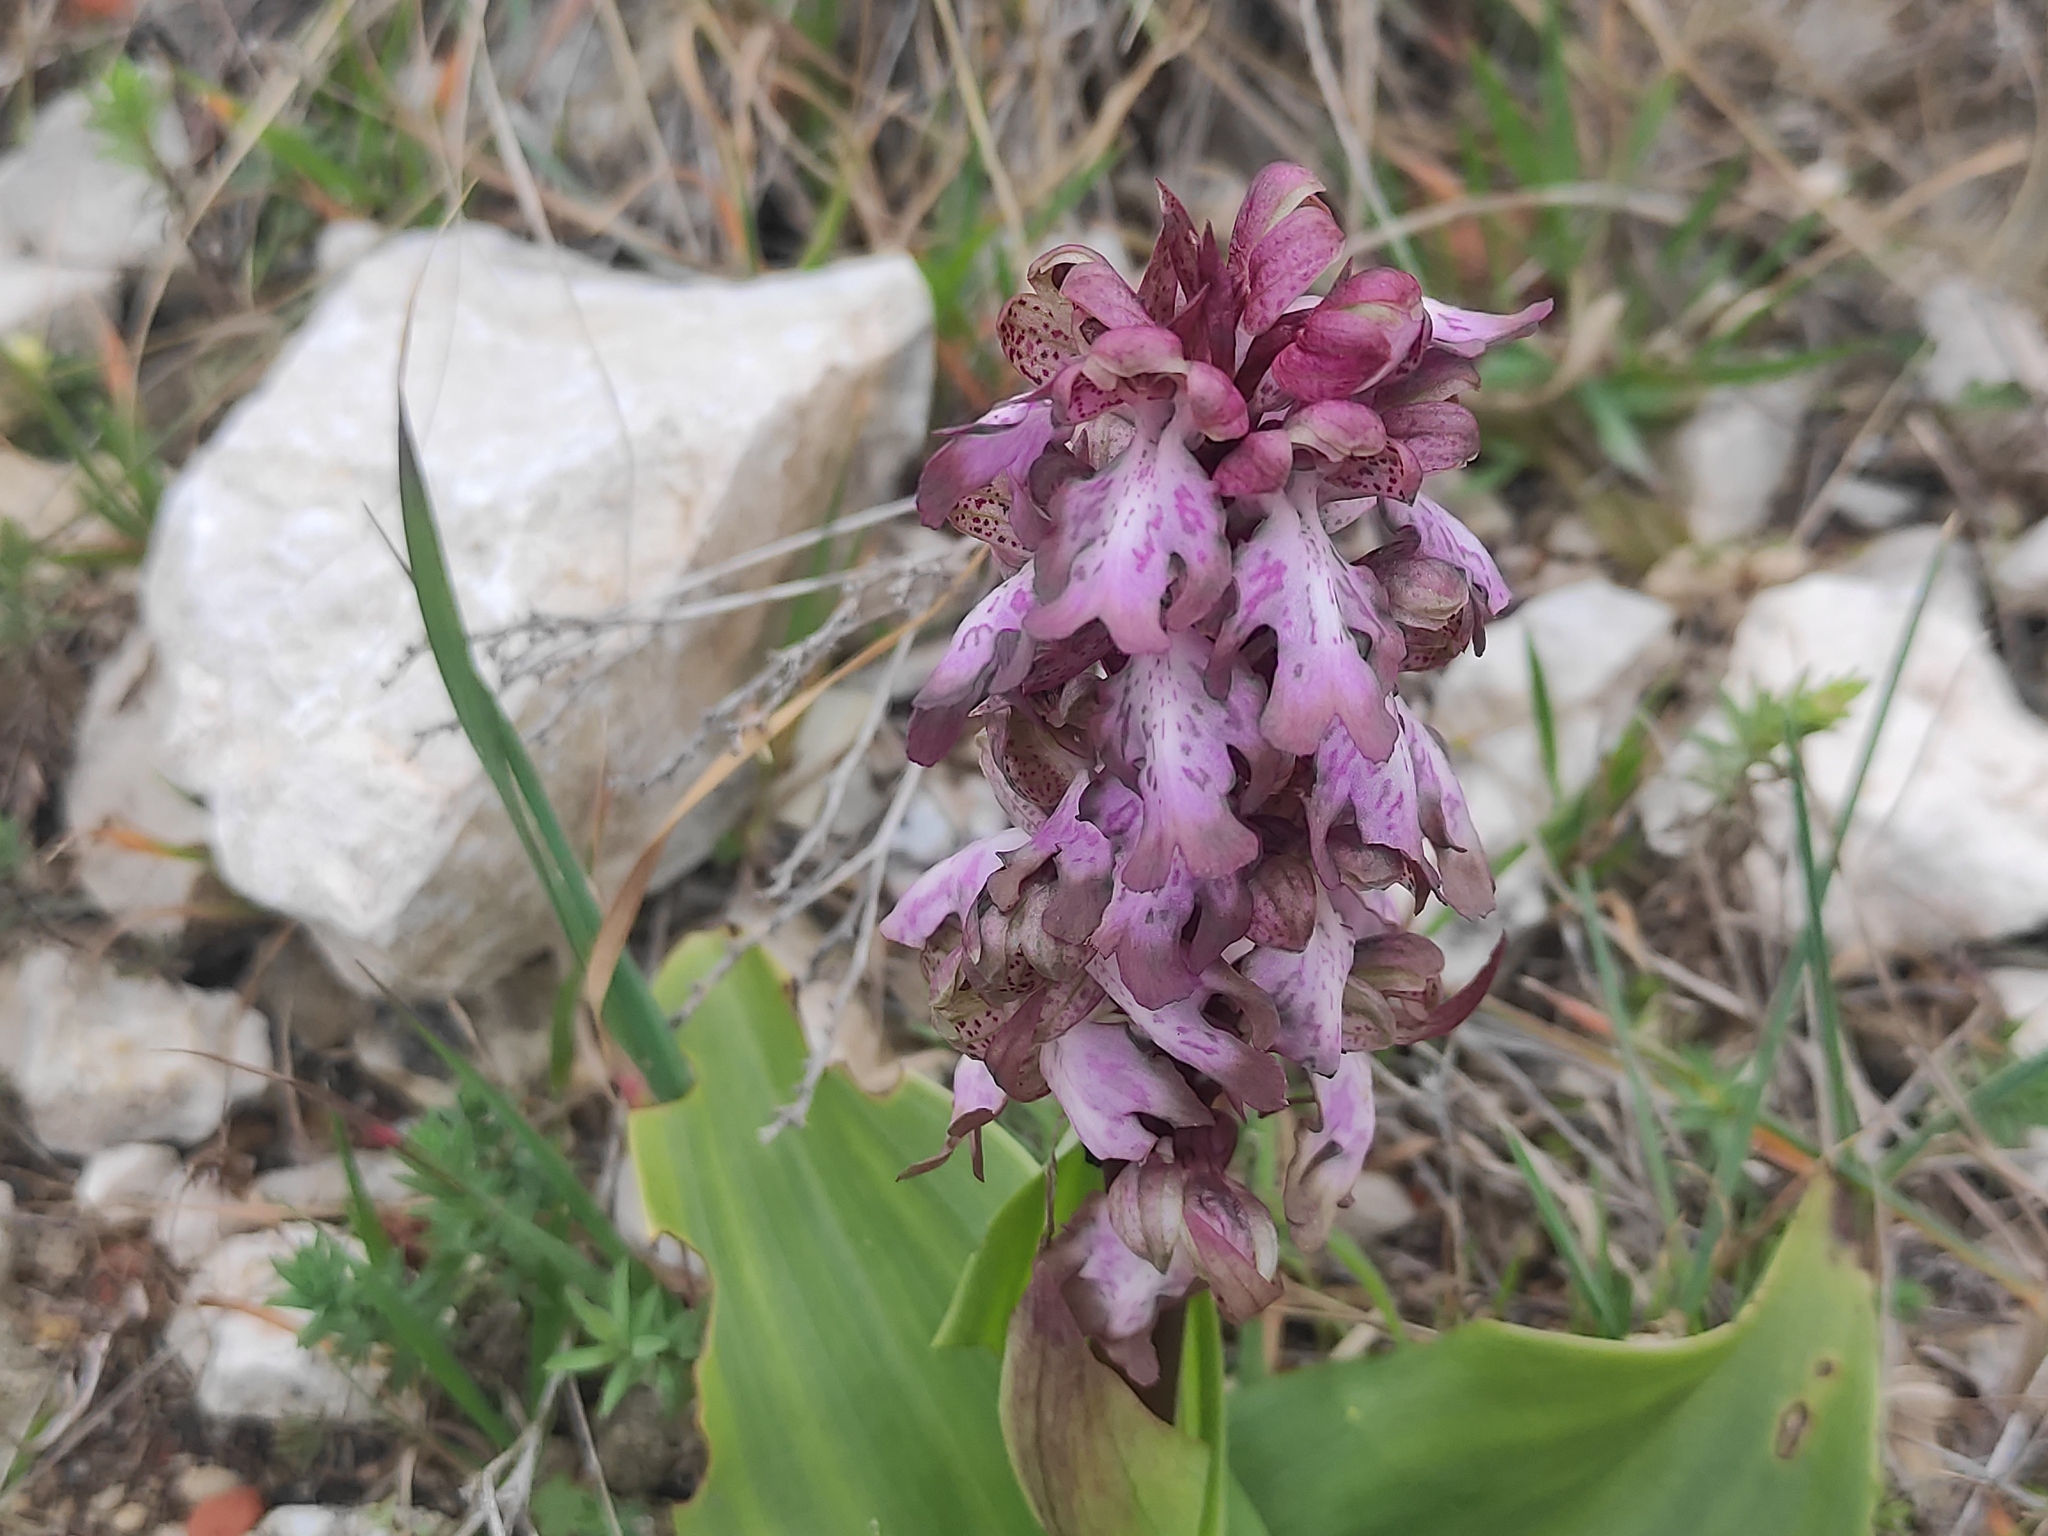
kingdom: Plantae
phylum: Tracheophyta
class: Liliopsida
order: Asparagales
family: Orchidaceae
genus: Himantoglossum
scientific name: Himantoglossum robertianum
